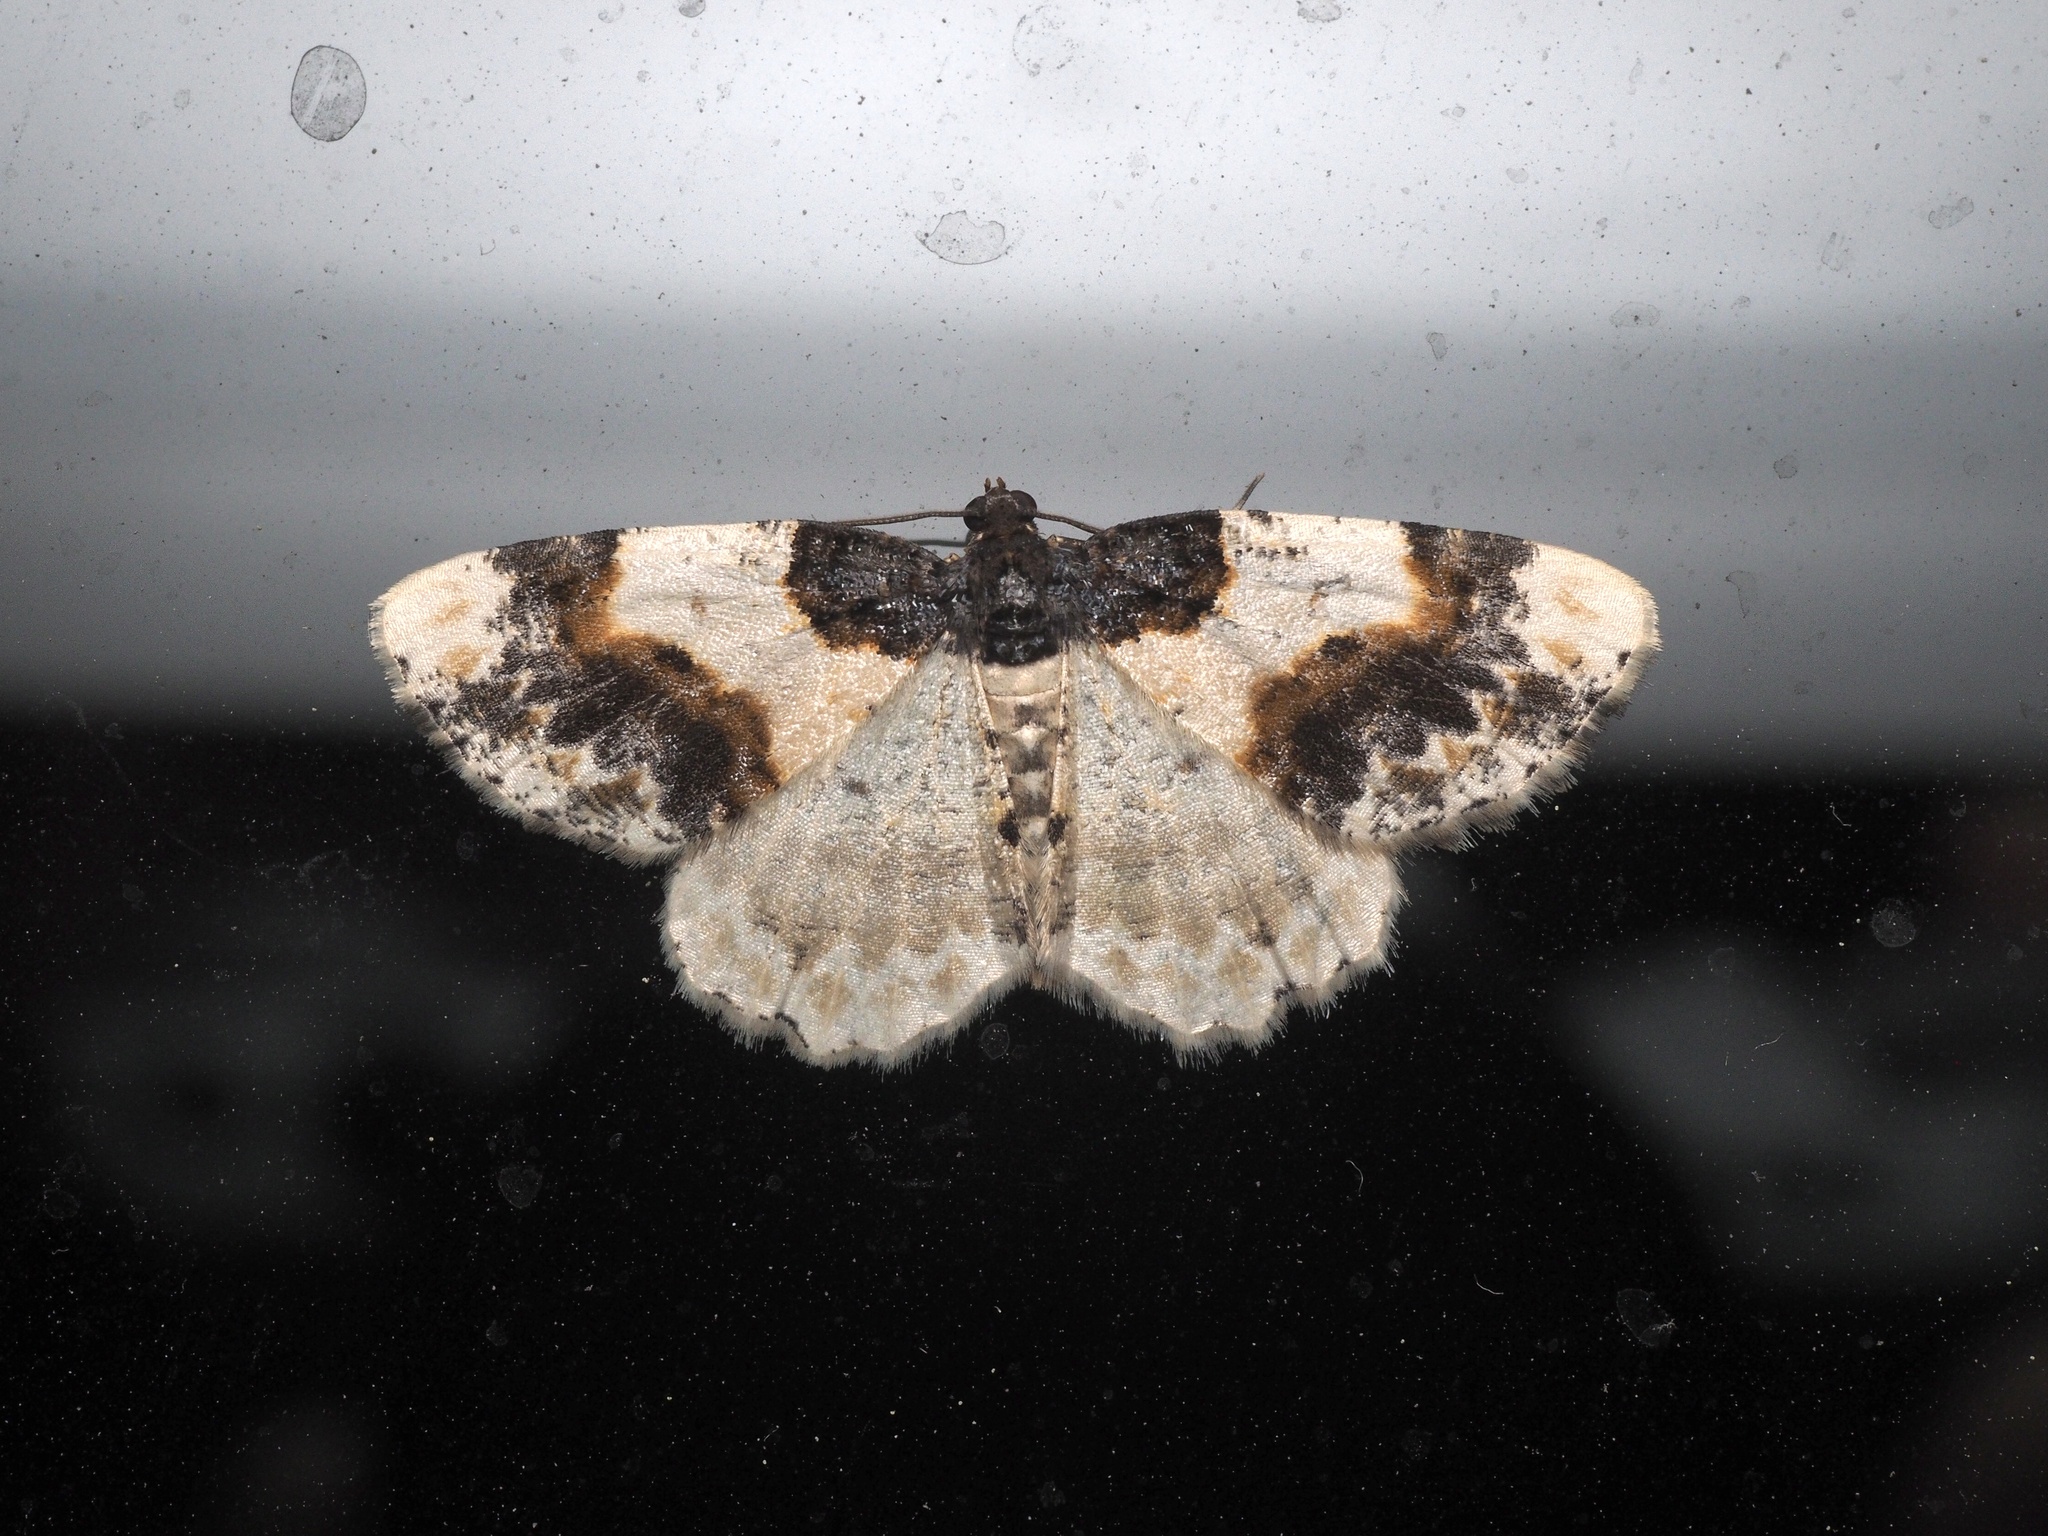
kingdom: Animalia
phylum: Arthropoda
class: Insecta
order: Lepidoptera
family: Geometridae
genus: Ligdia
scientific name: Ligdia adustata
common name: Scorched carpet
